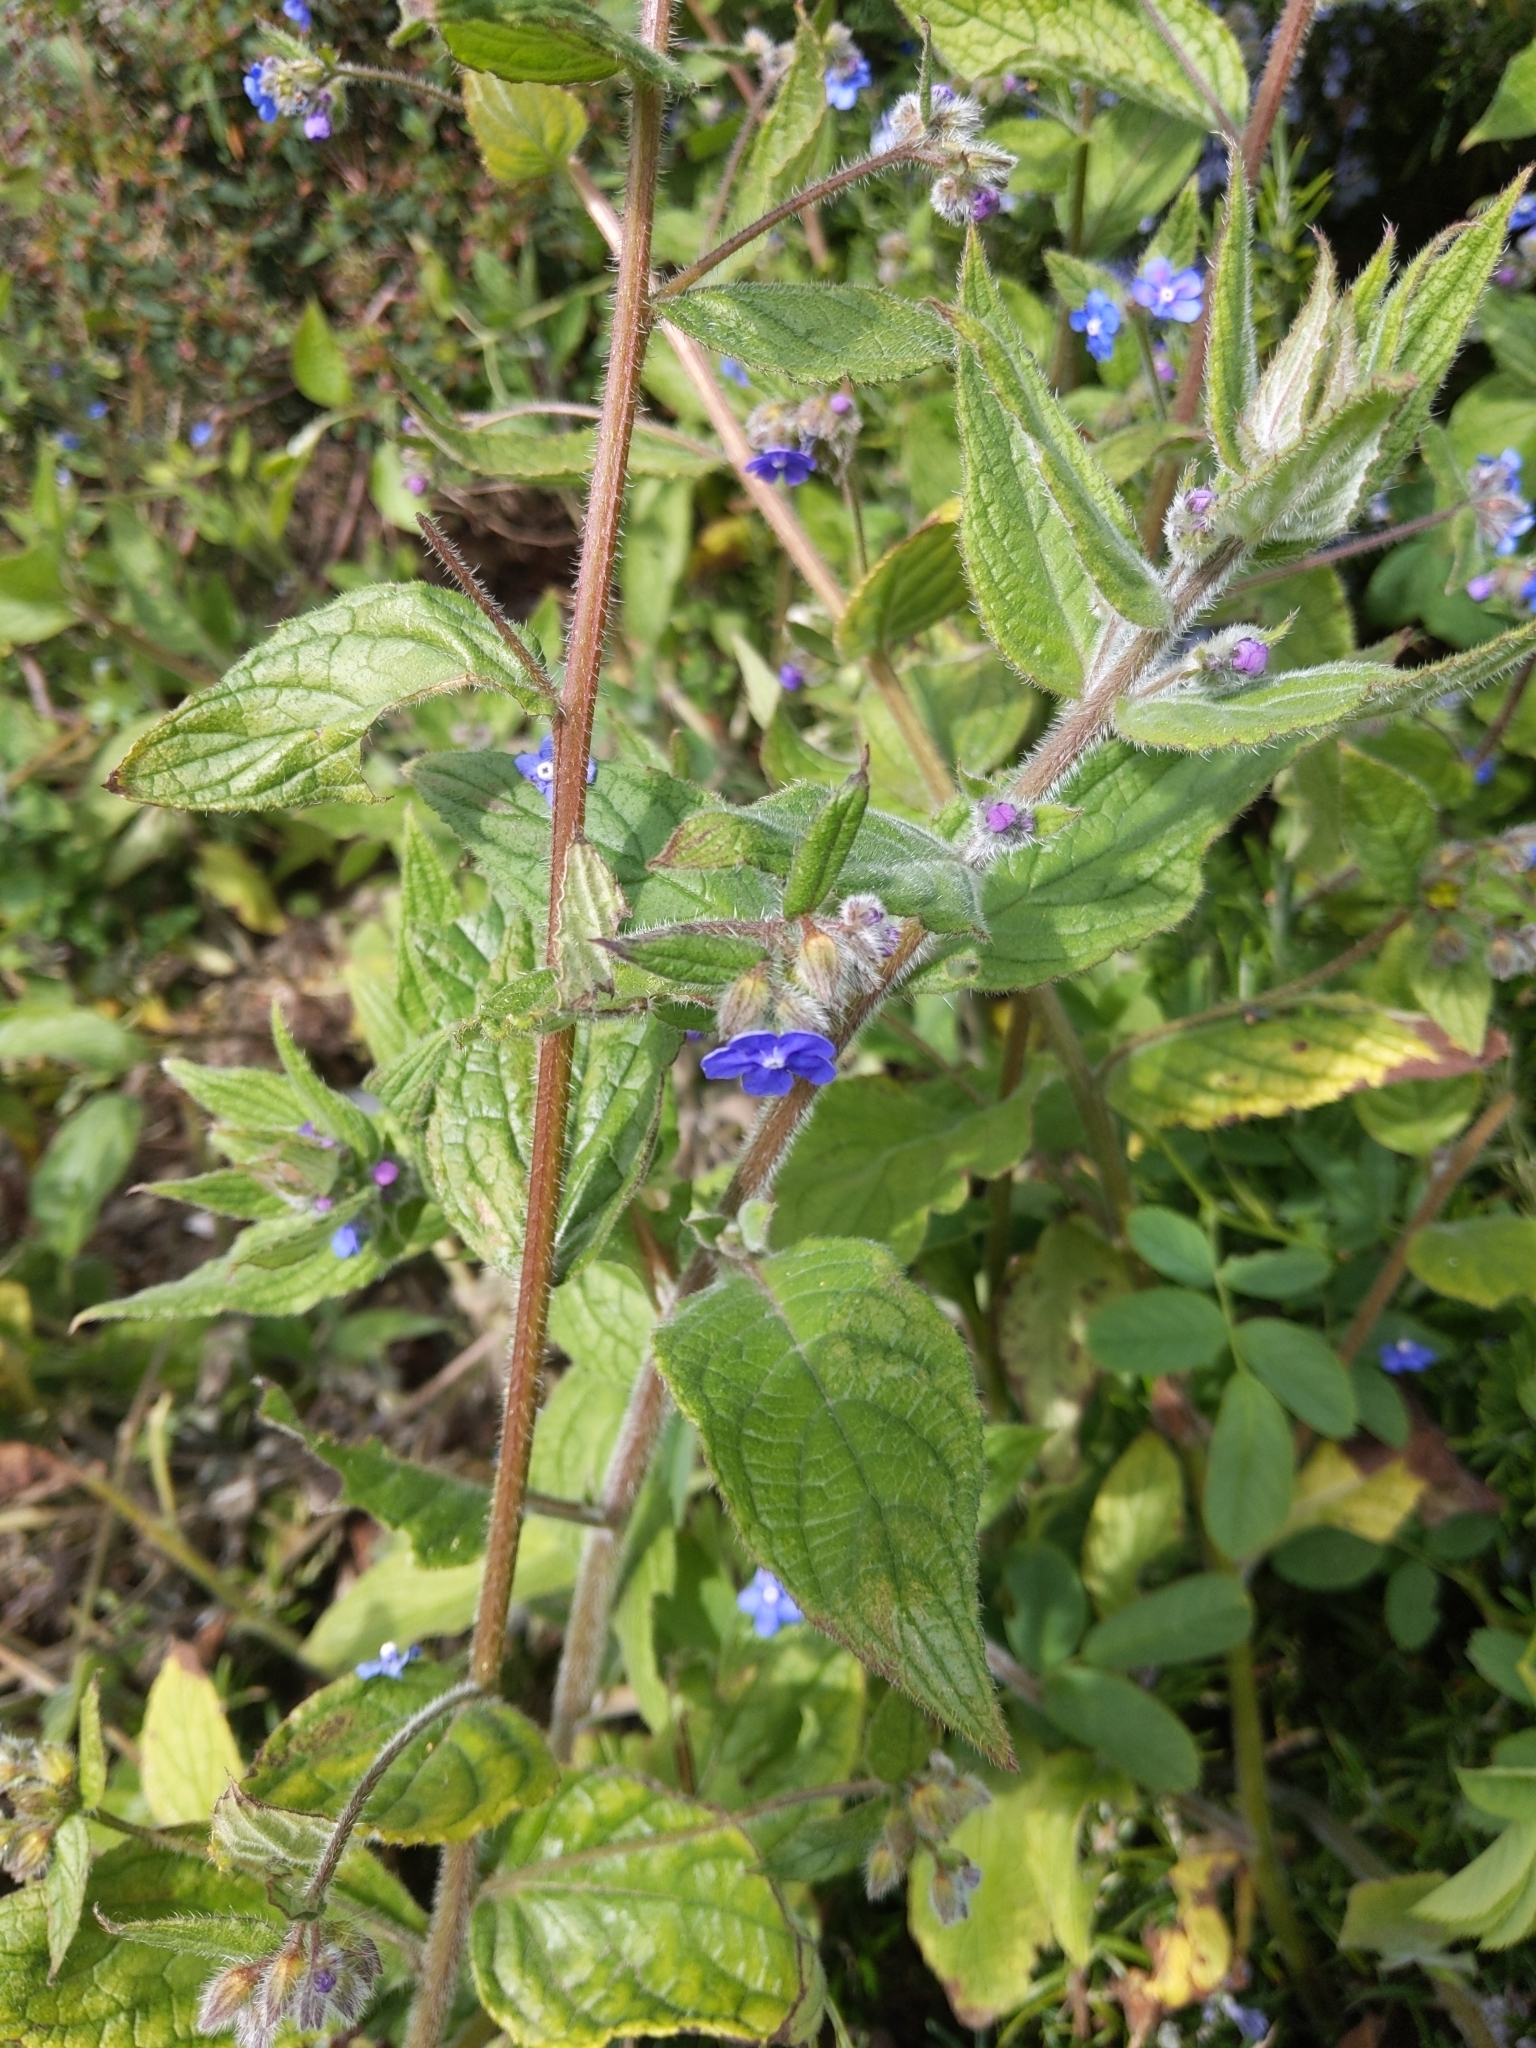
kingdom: Plantae
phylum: Tracheophyta
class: Magnoliopsida
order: Boraginales
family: Boraginaceae
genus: Pentaglottis
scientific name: Pentaglottis sempervirens
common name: Green alkanet
